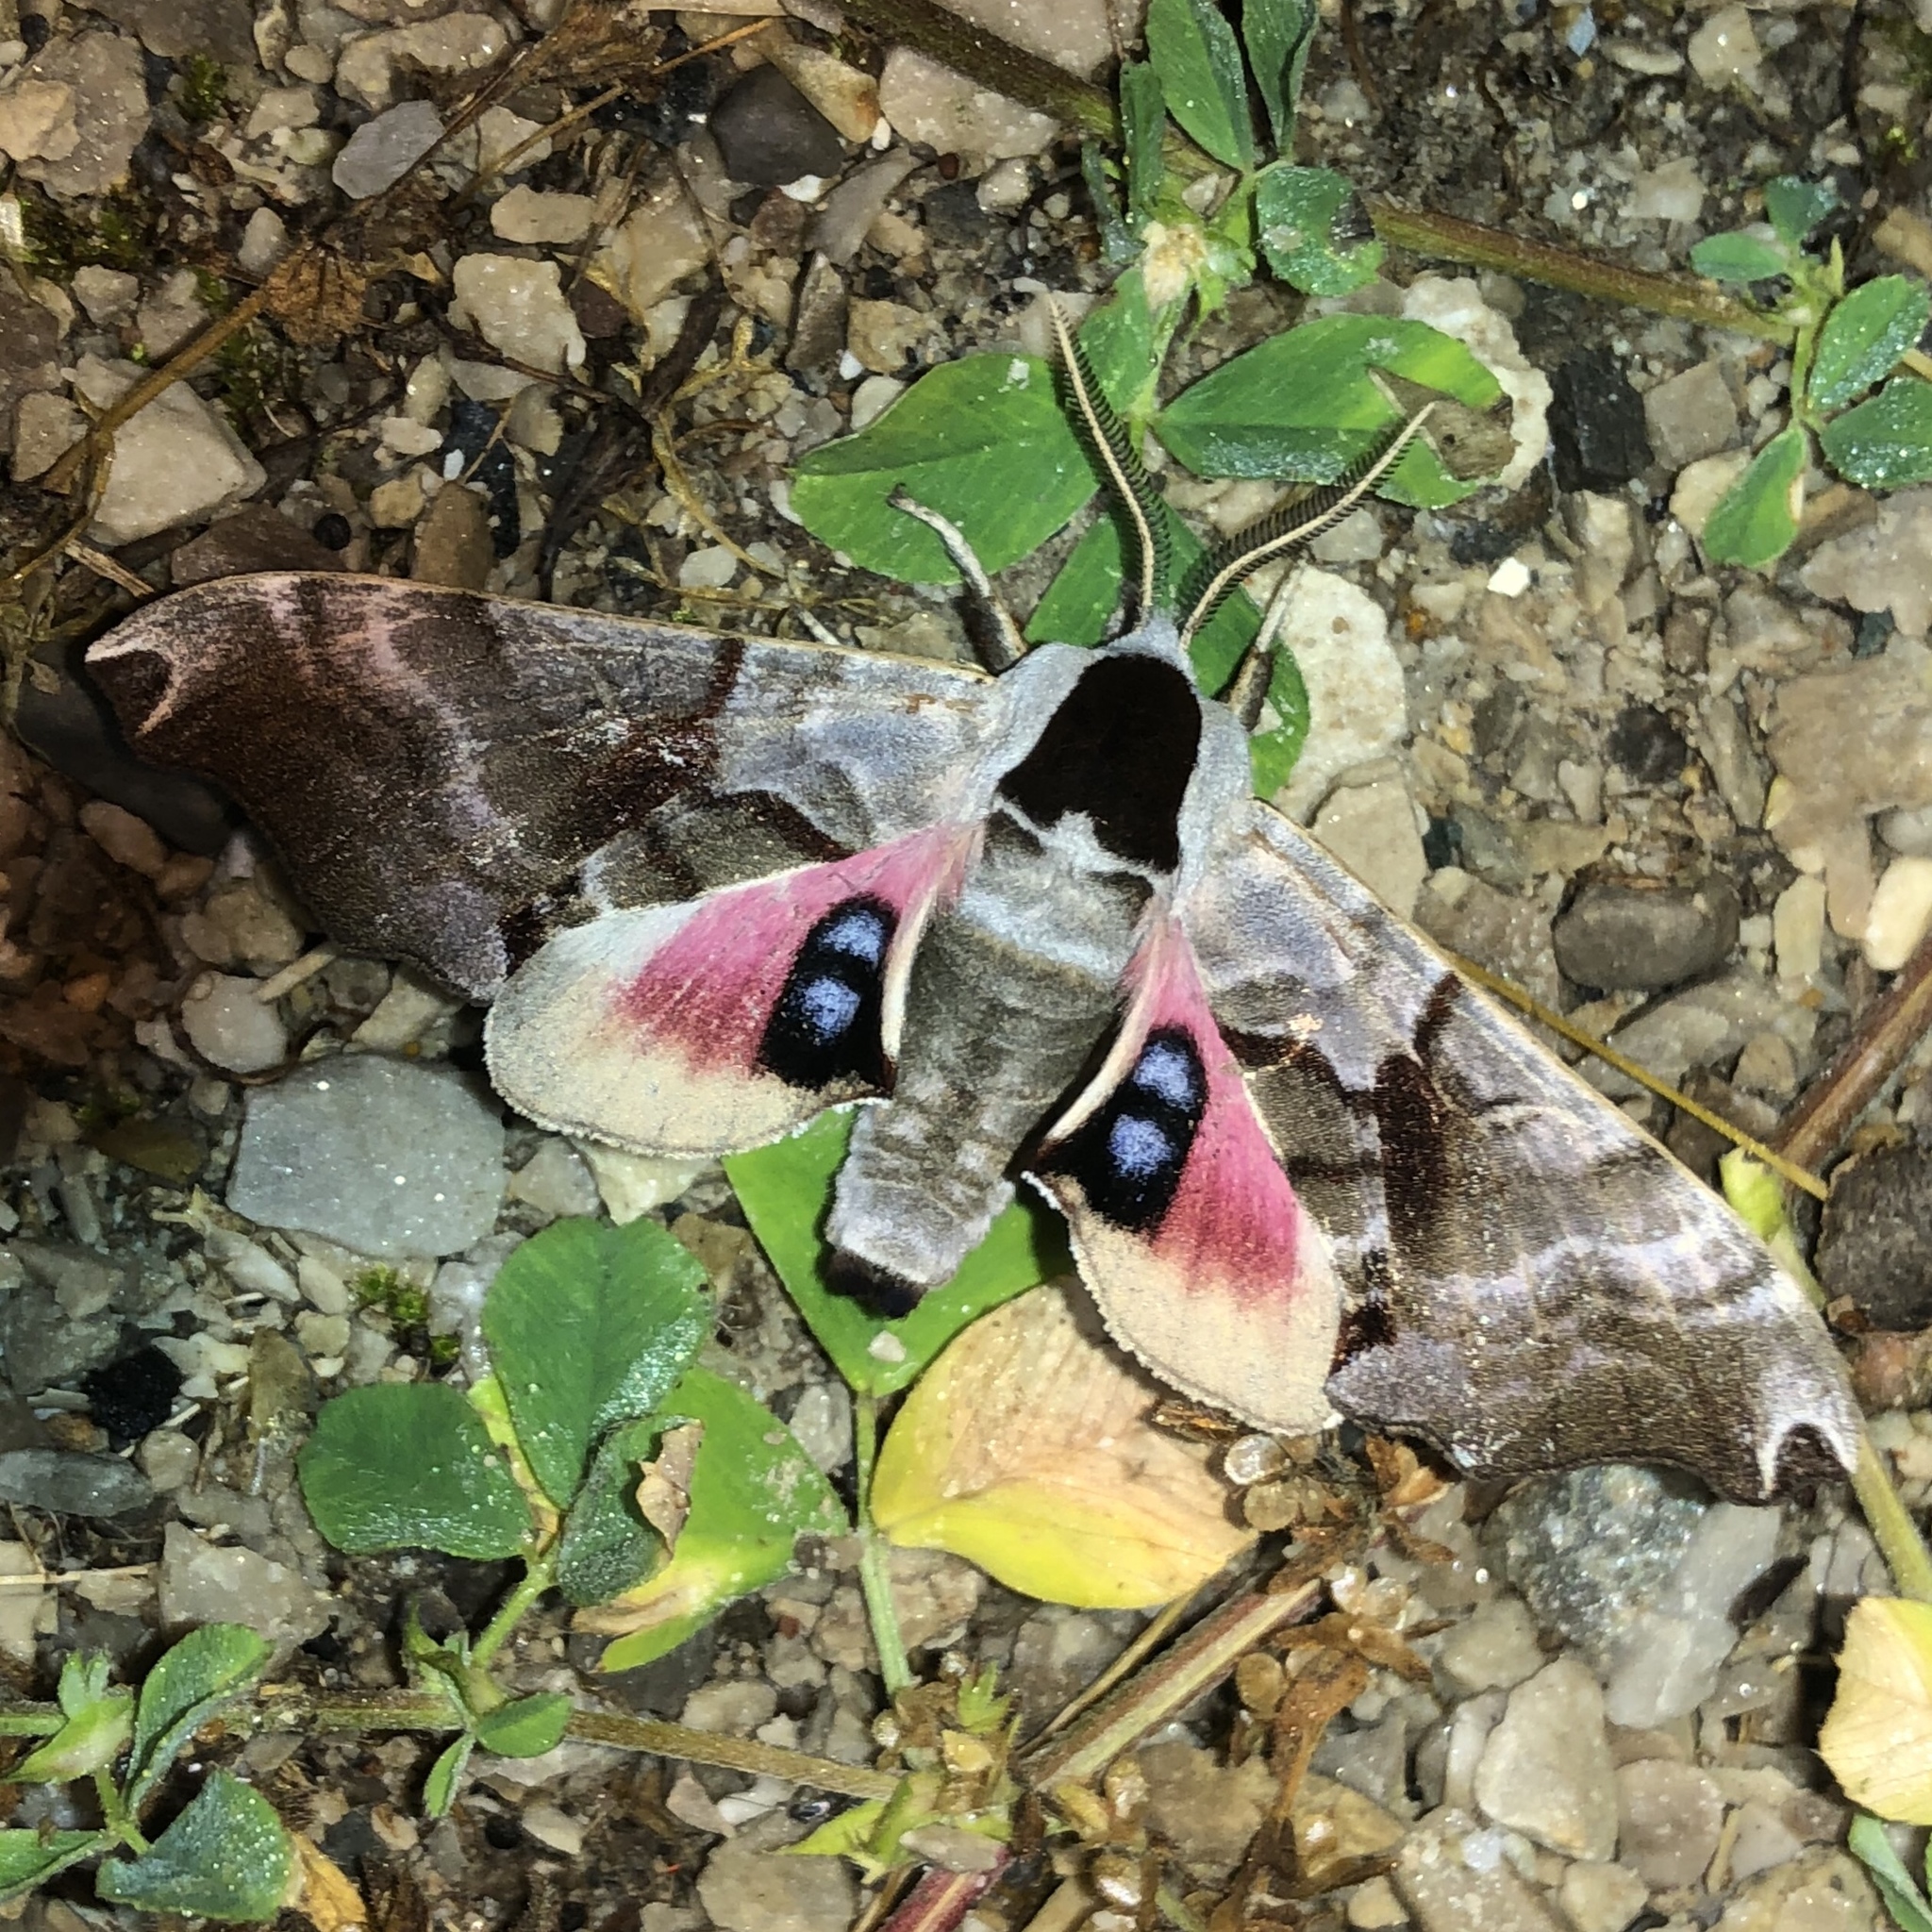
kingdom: Animalia
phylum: Arthropoda
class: Insecta
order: Lepidoptera
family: Sphingidae
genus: Smerinthus
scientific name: Smerinthus jamaicensis
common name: Twin spotted sphinx
